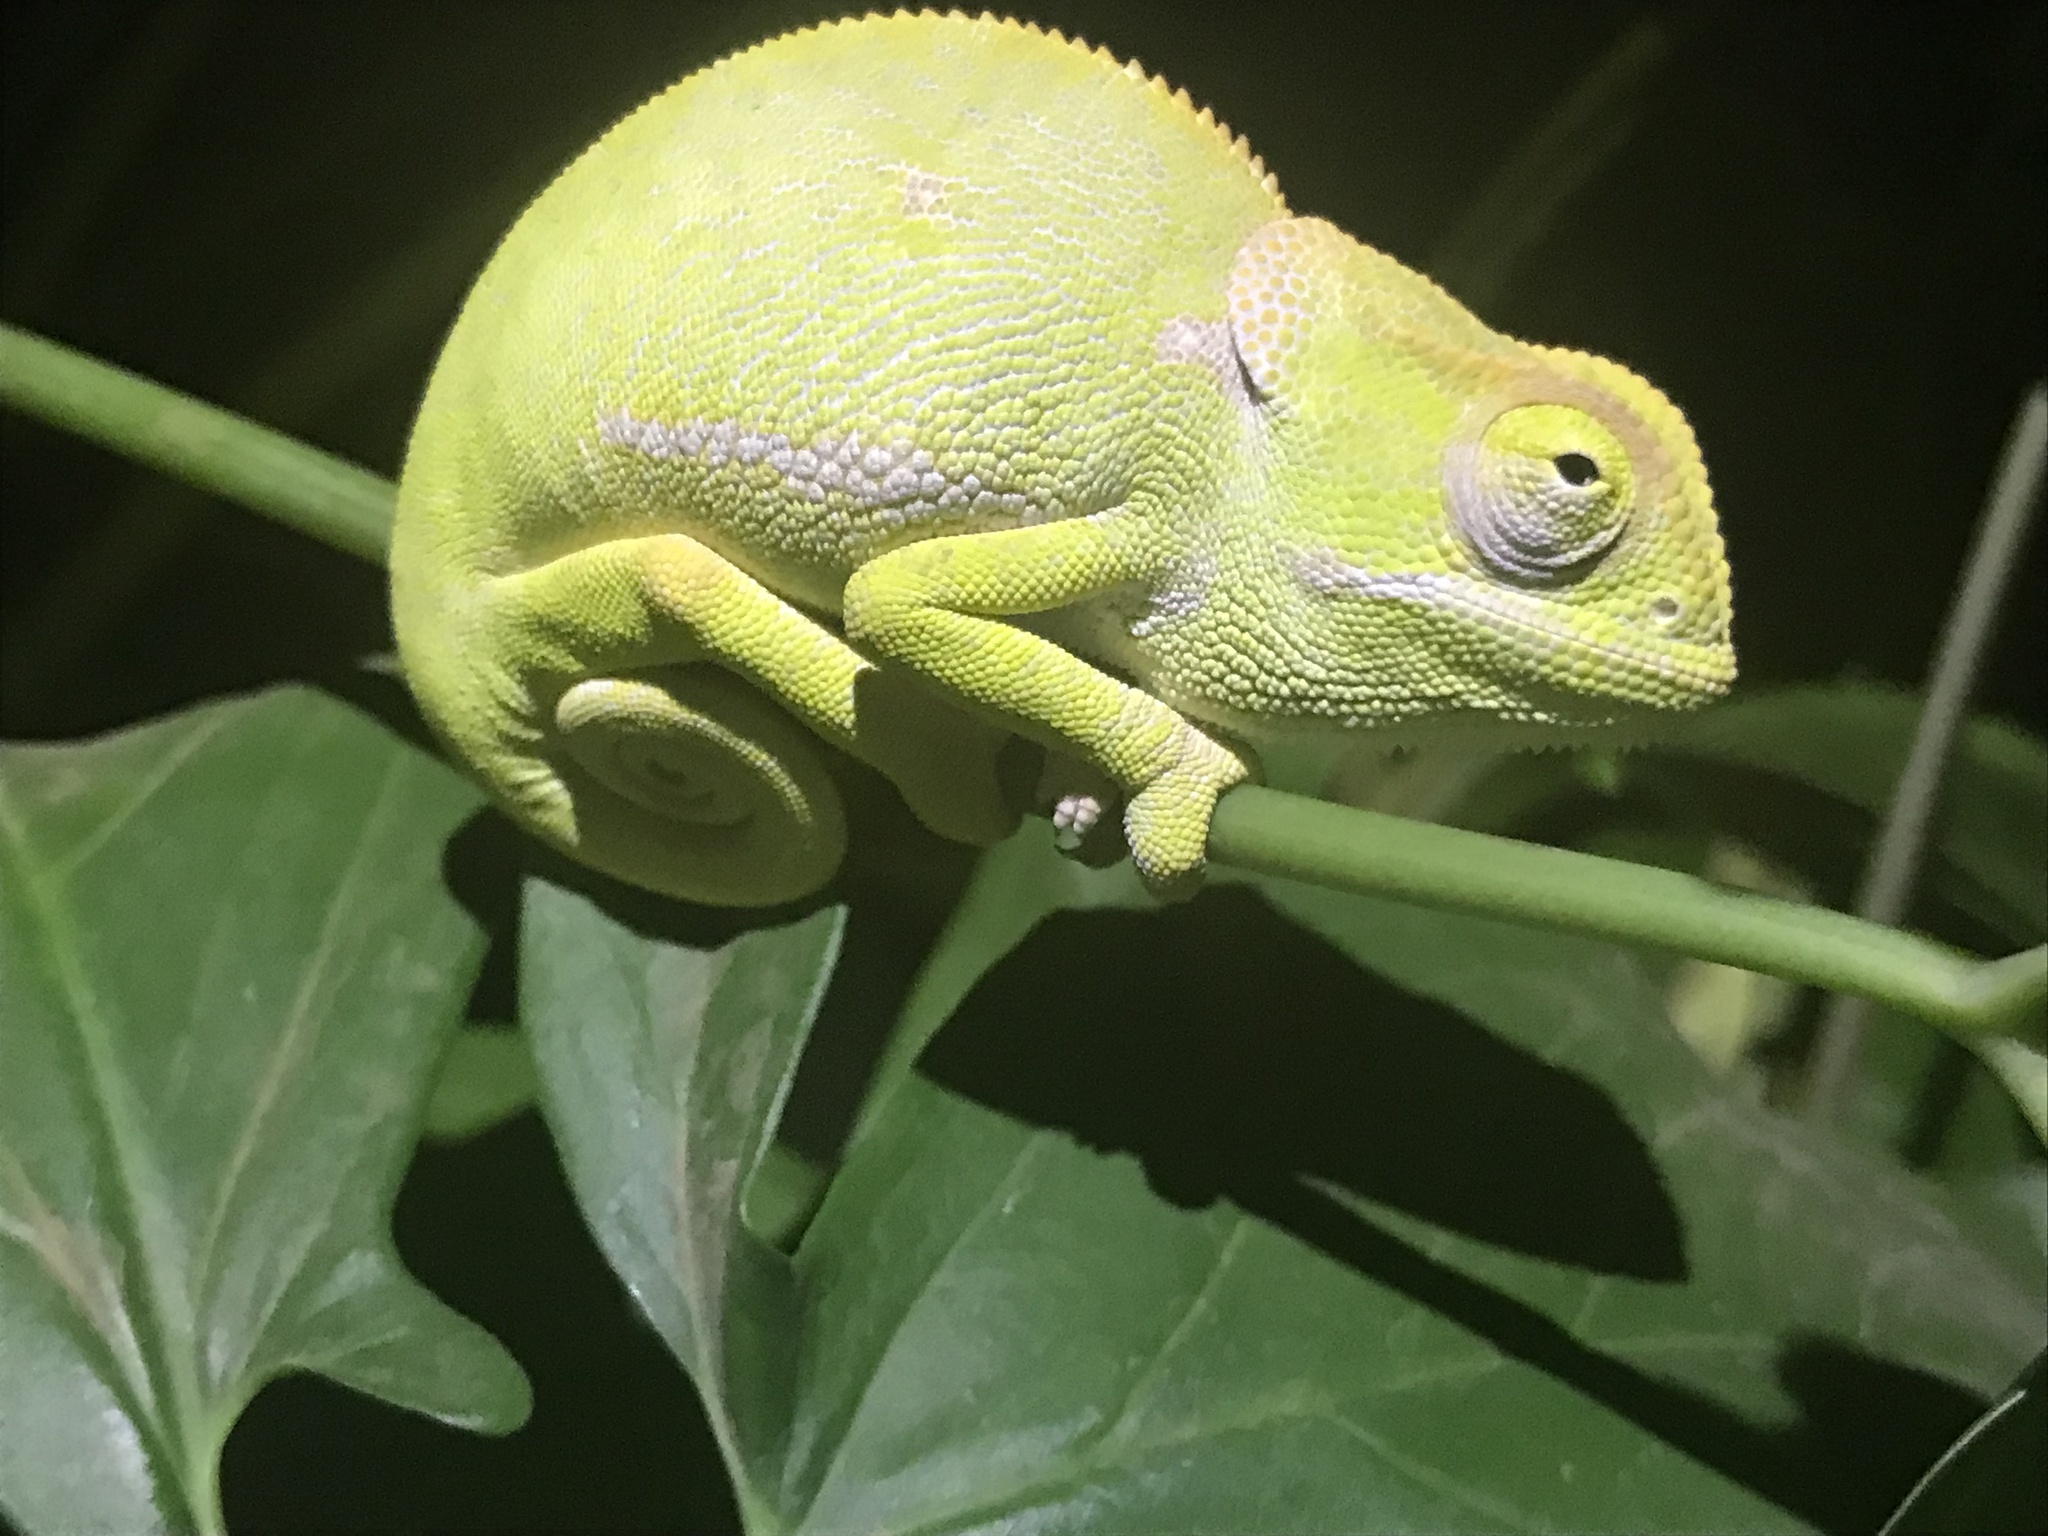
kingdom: Animalia
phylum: Chordata
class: Squamata
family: Chamaeleonidae
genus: Chamaeleo
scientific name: Chamaeleo dilepis
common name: Flapneck chameleon
